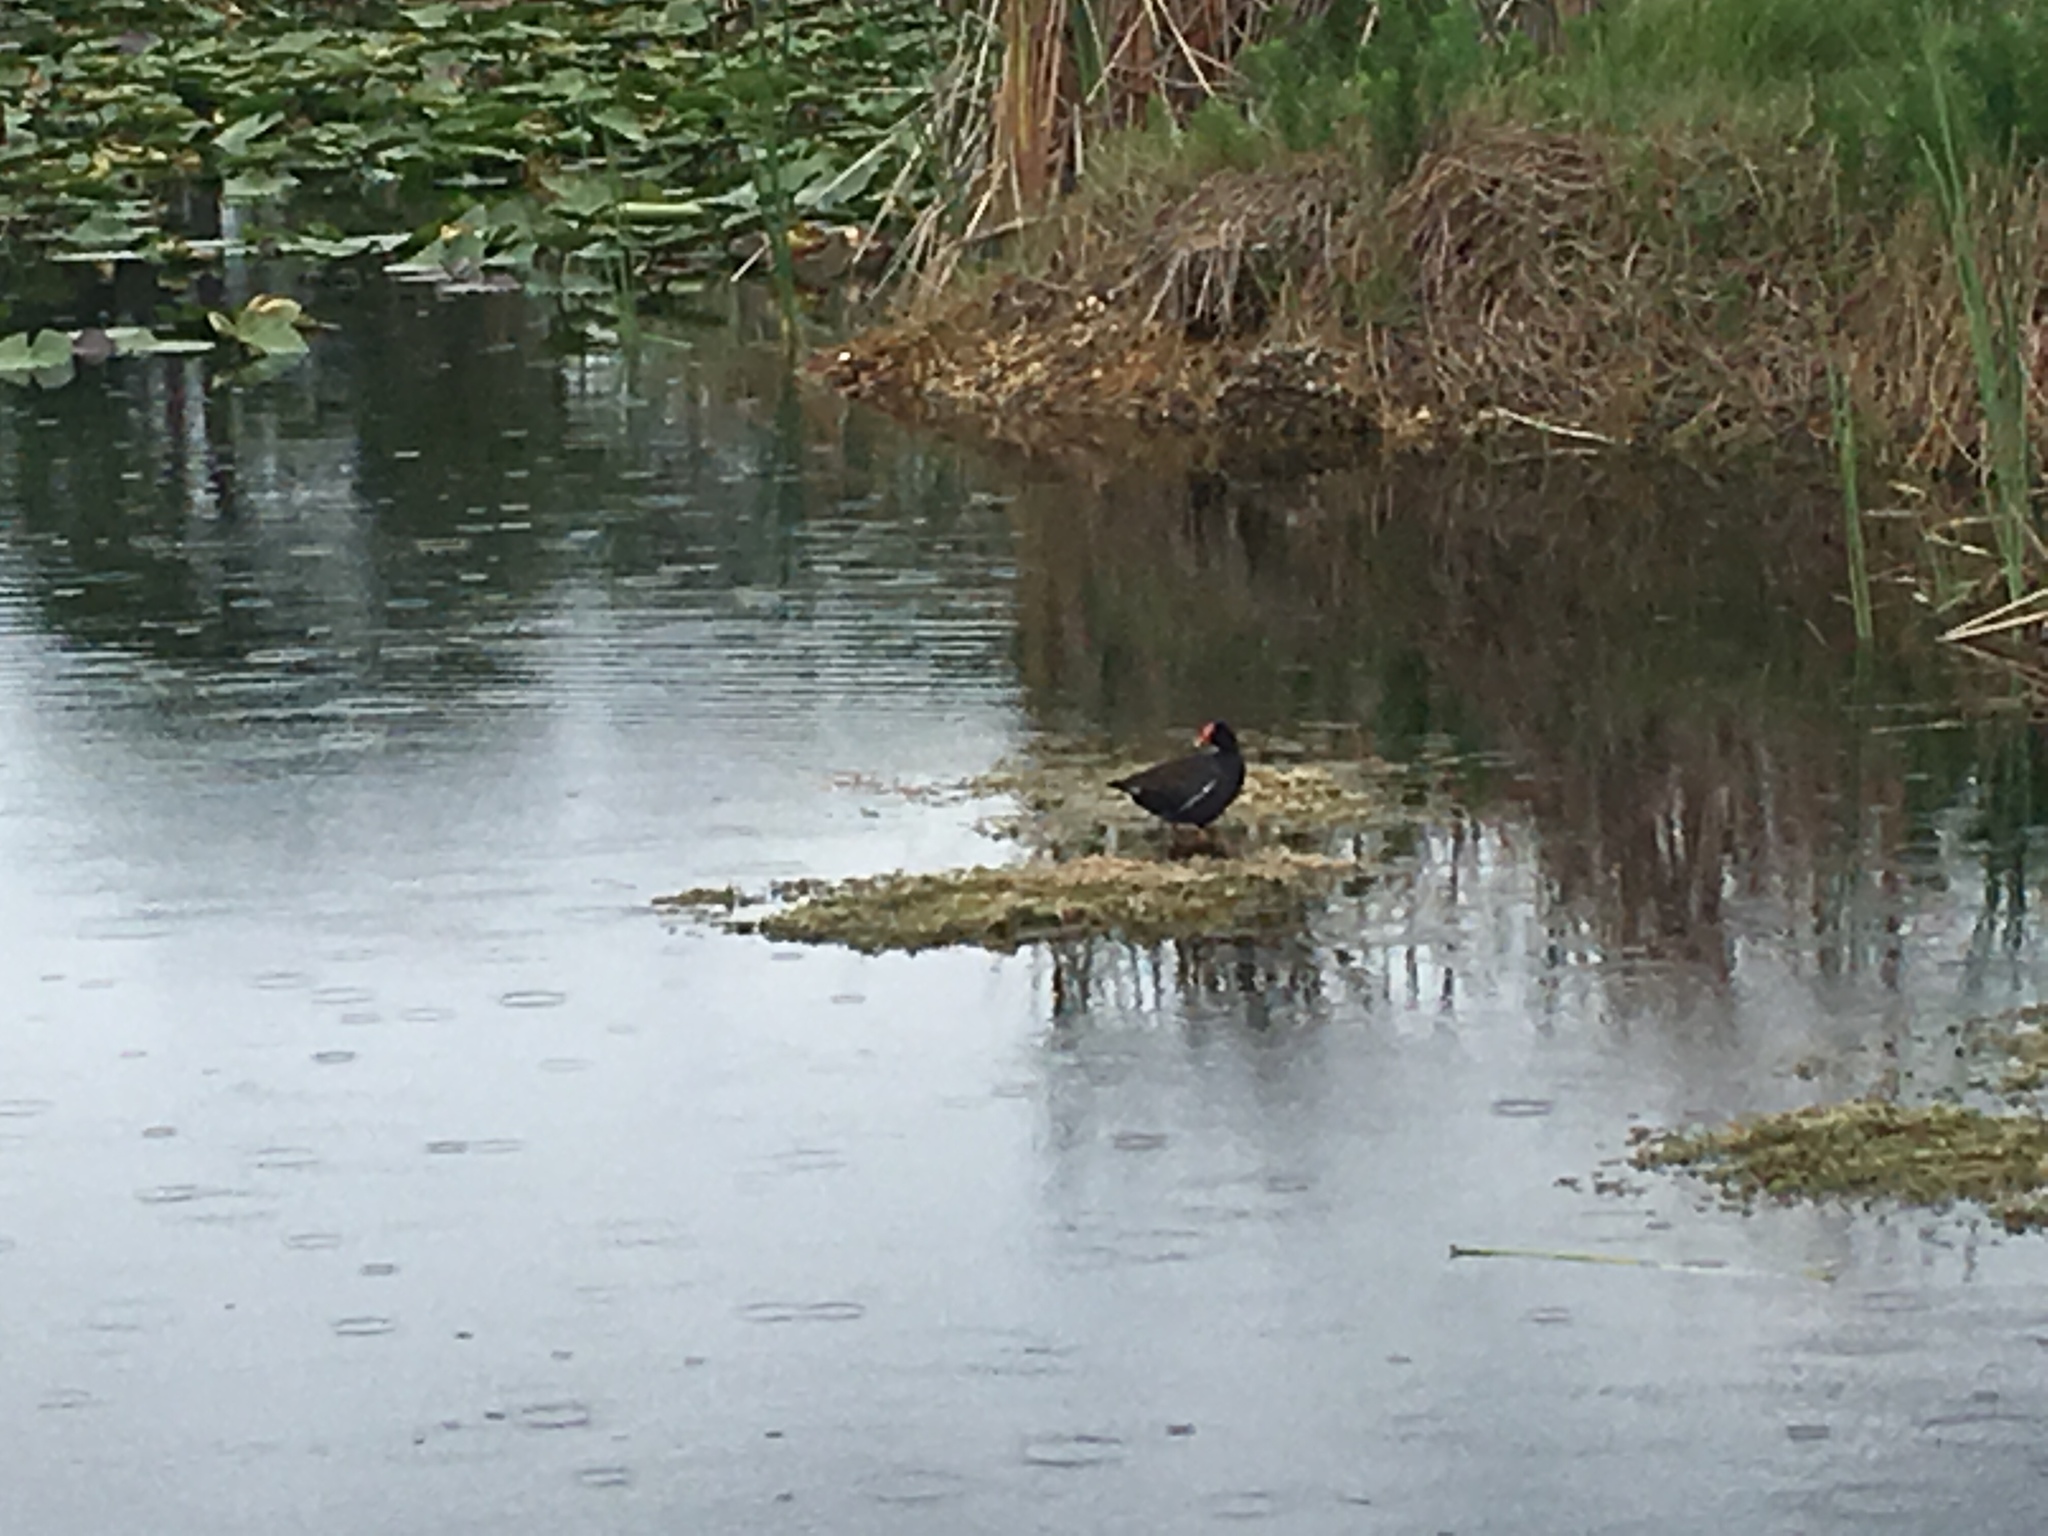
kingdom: Animalia
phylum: Chordata
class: Aves
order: Gruiformes
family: Rallidae
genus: Gallinula
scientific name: Gallinula chloropus
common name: Common moorhen
